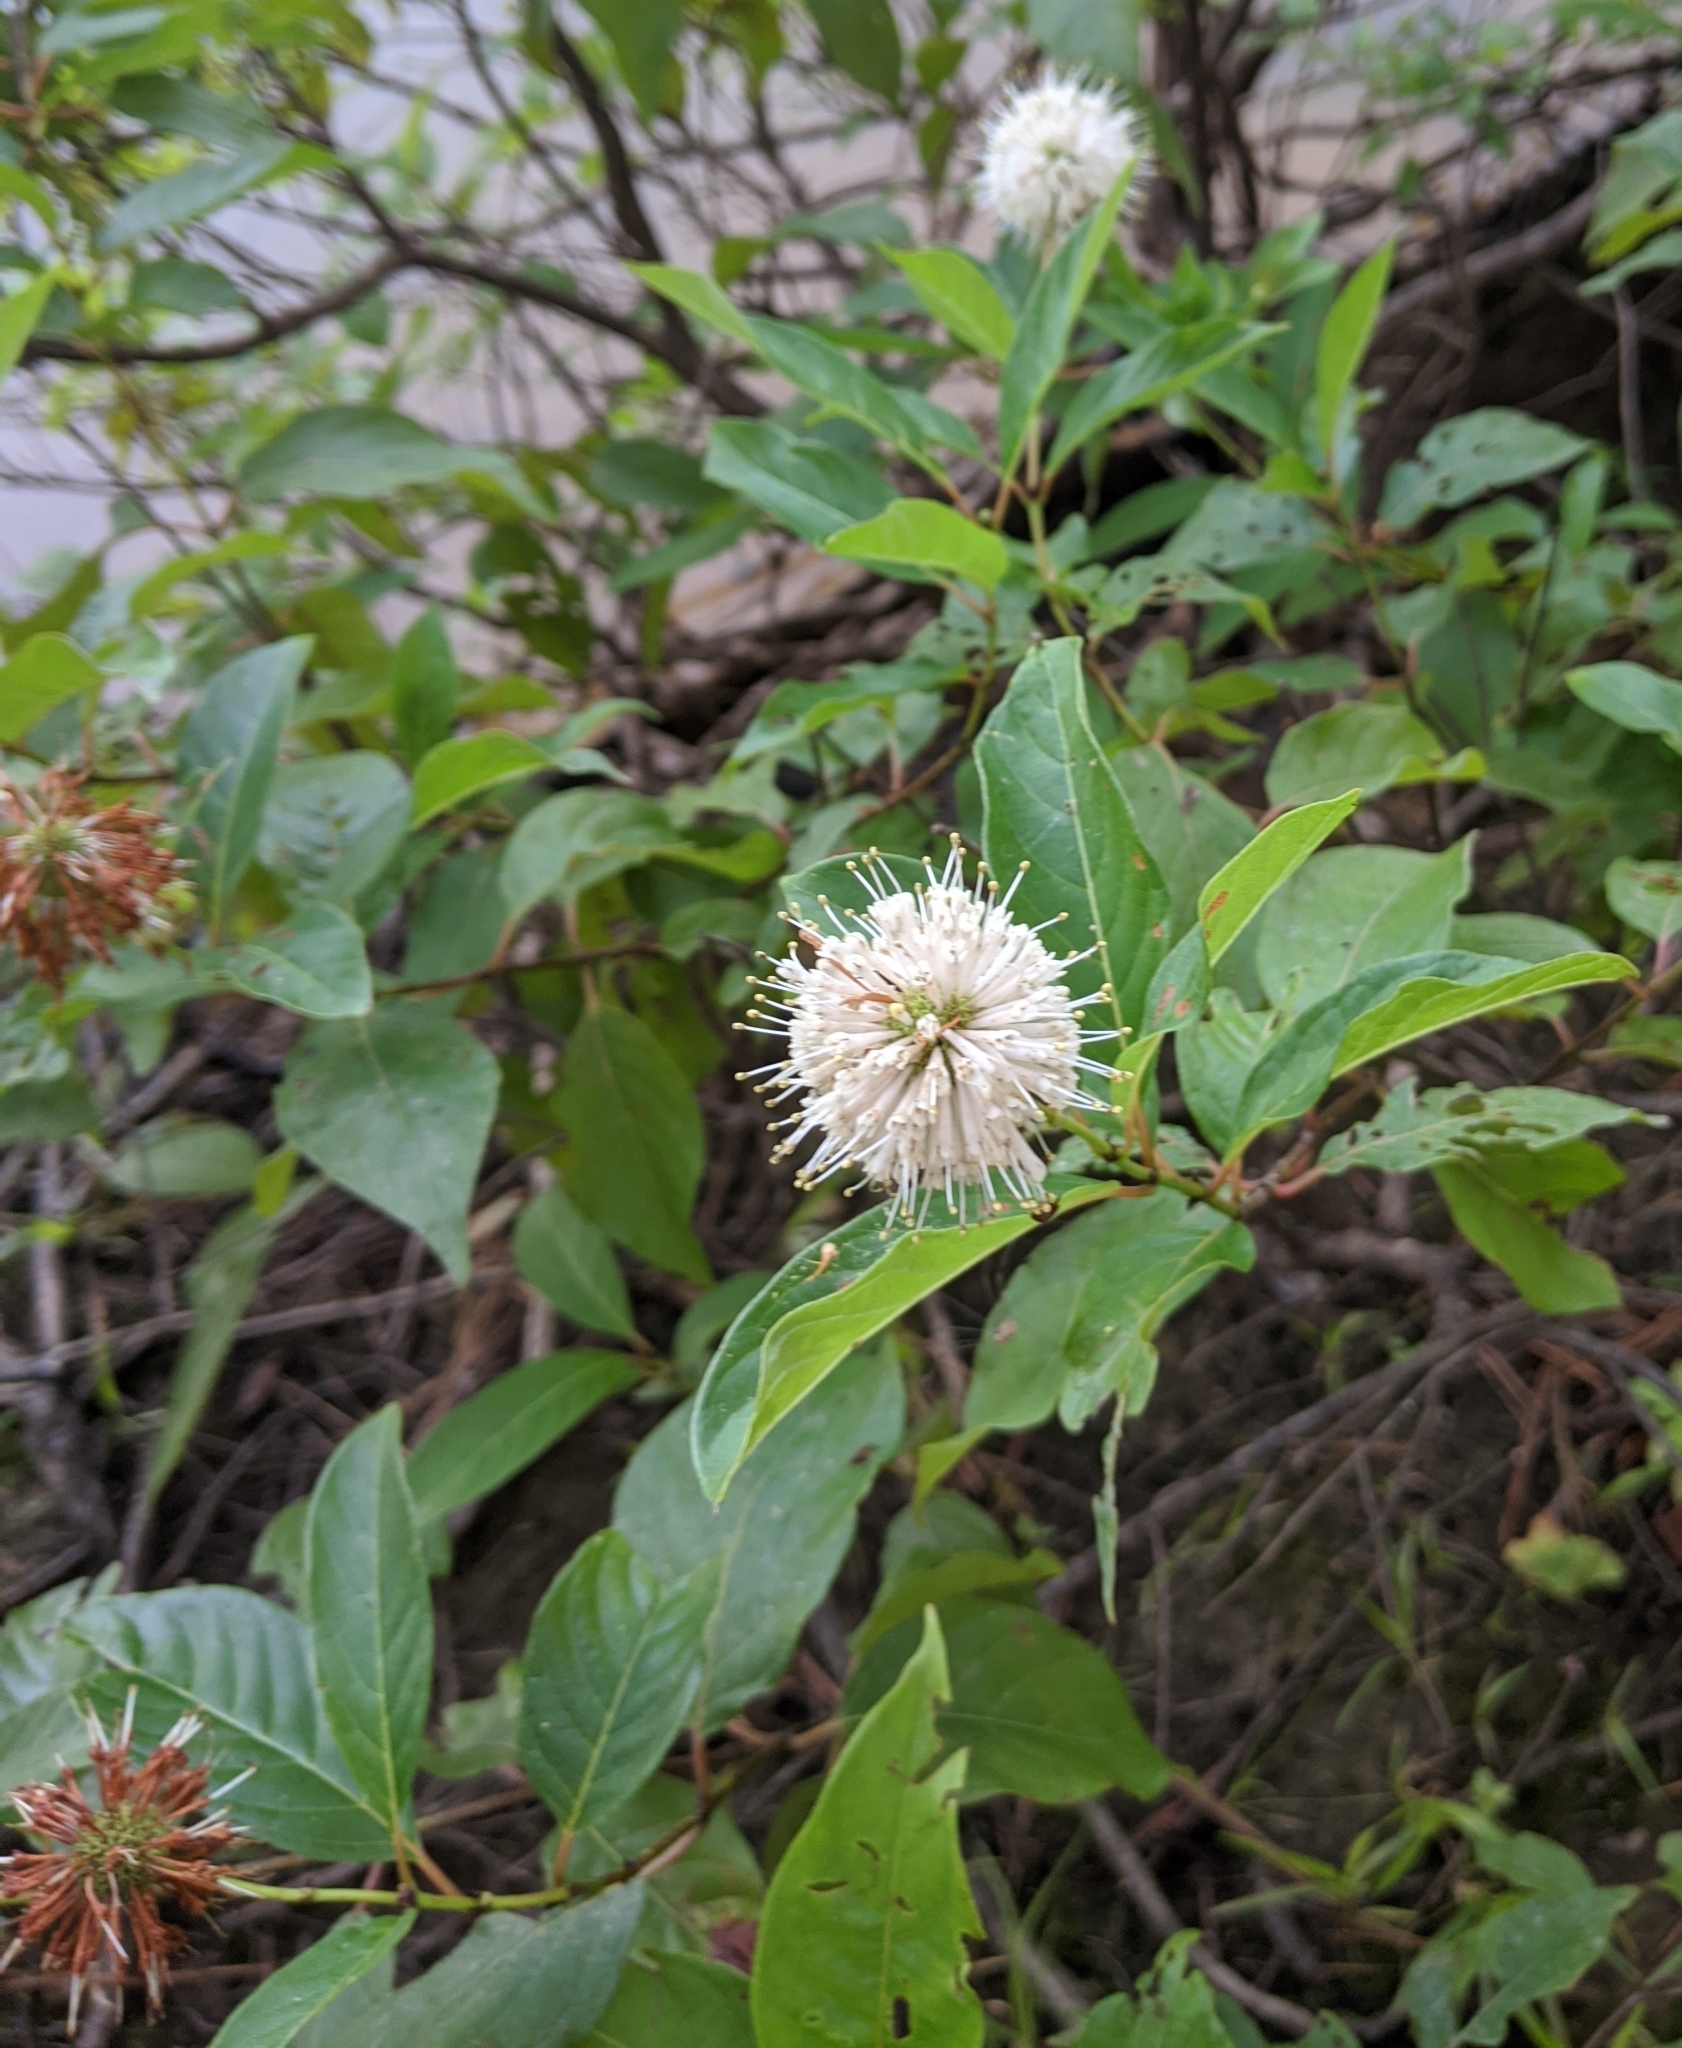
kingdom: Plantae
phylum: Tracheophyta
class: Magnoliopsida
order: Gentianales
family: Rubiaceae
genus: Cephalanthus
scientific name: Cephalanthus occidentalis
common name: Button-willow
